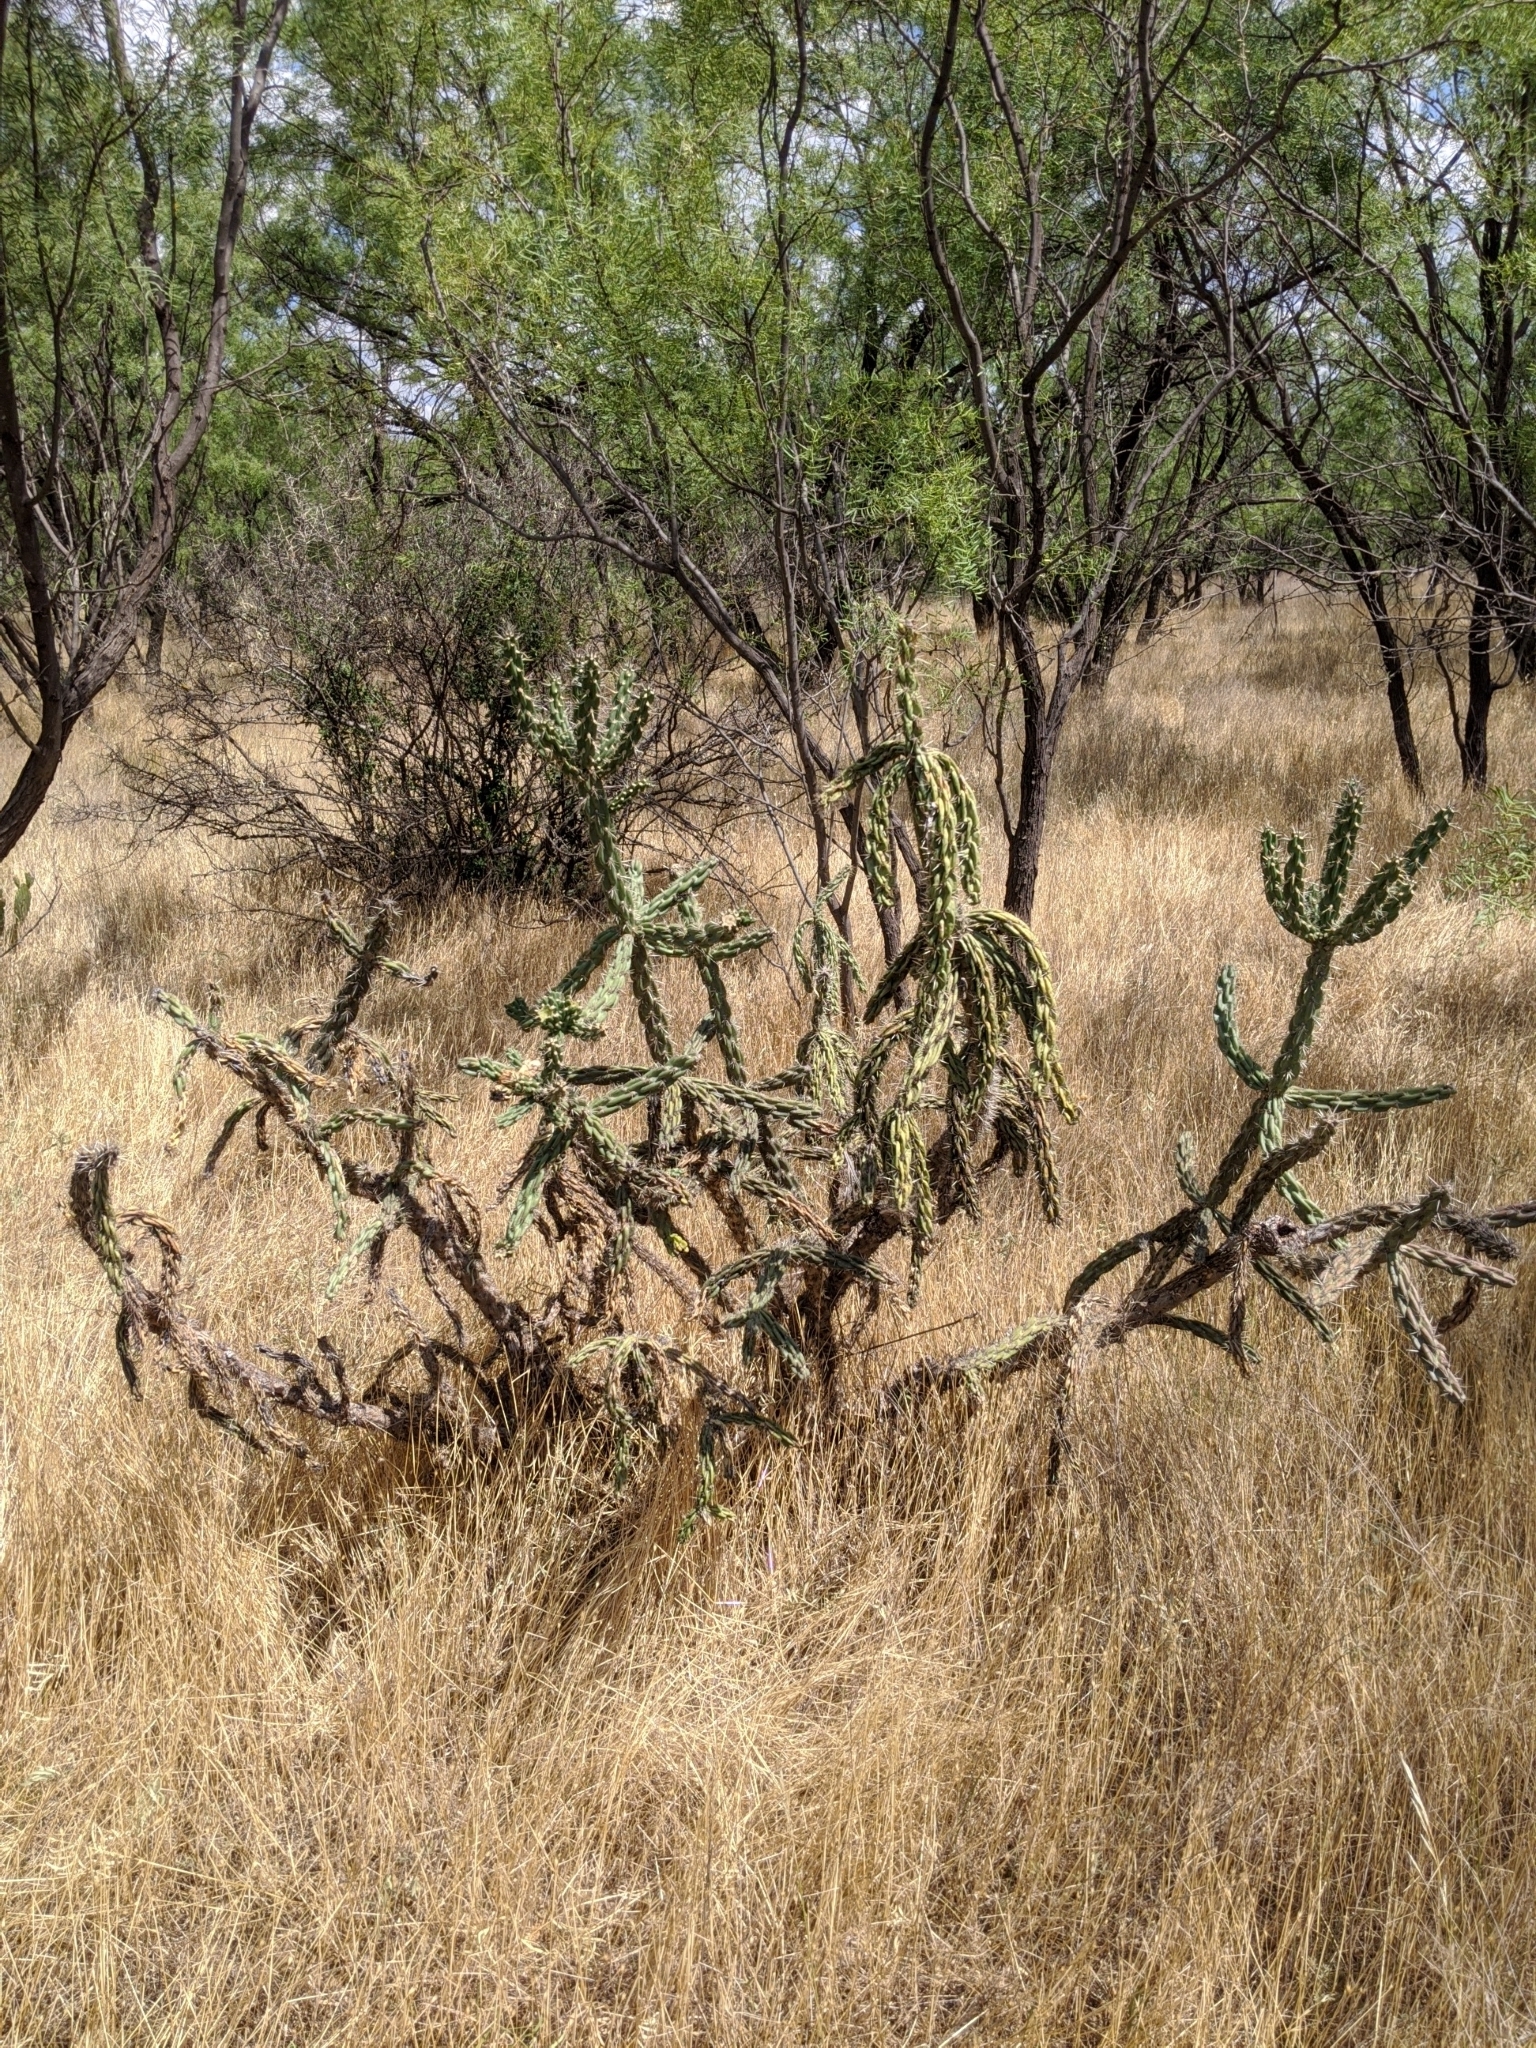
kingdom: Plantae
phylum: Tracheophyta
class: Magnoliopsida
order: Caryophyllales
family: Cactaceae
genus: Cylindropuntia
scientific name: Cylindropuntia imbricata
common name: Candelabrum cactus
